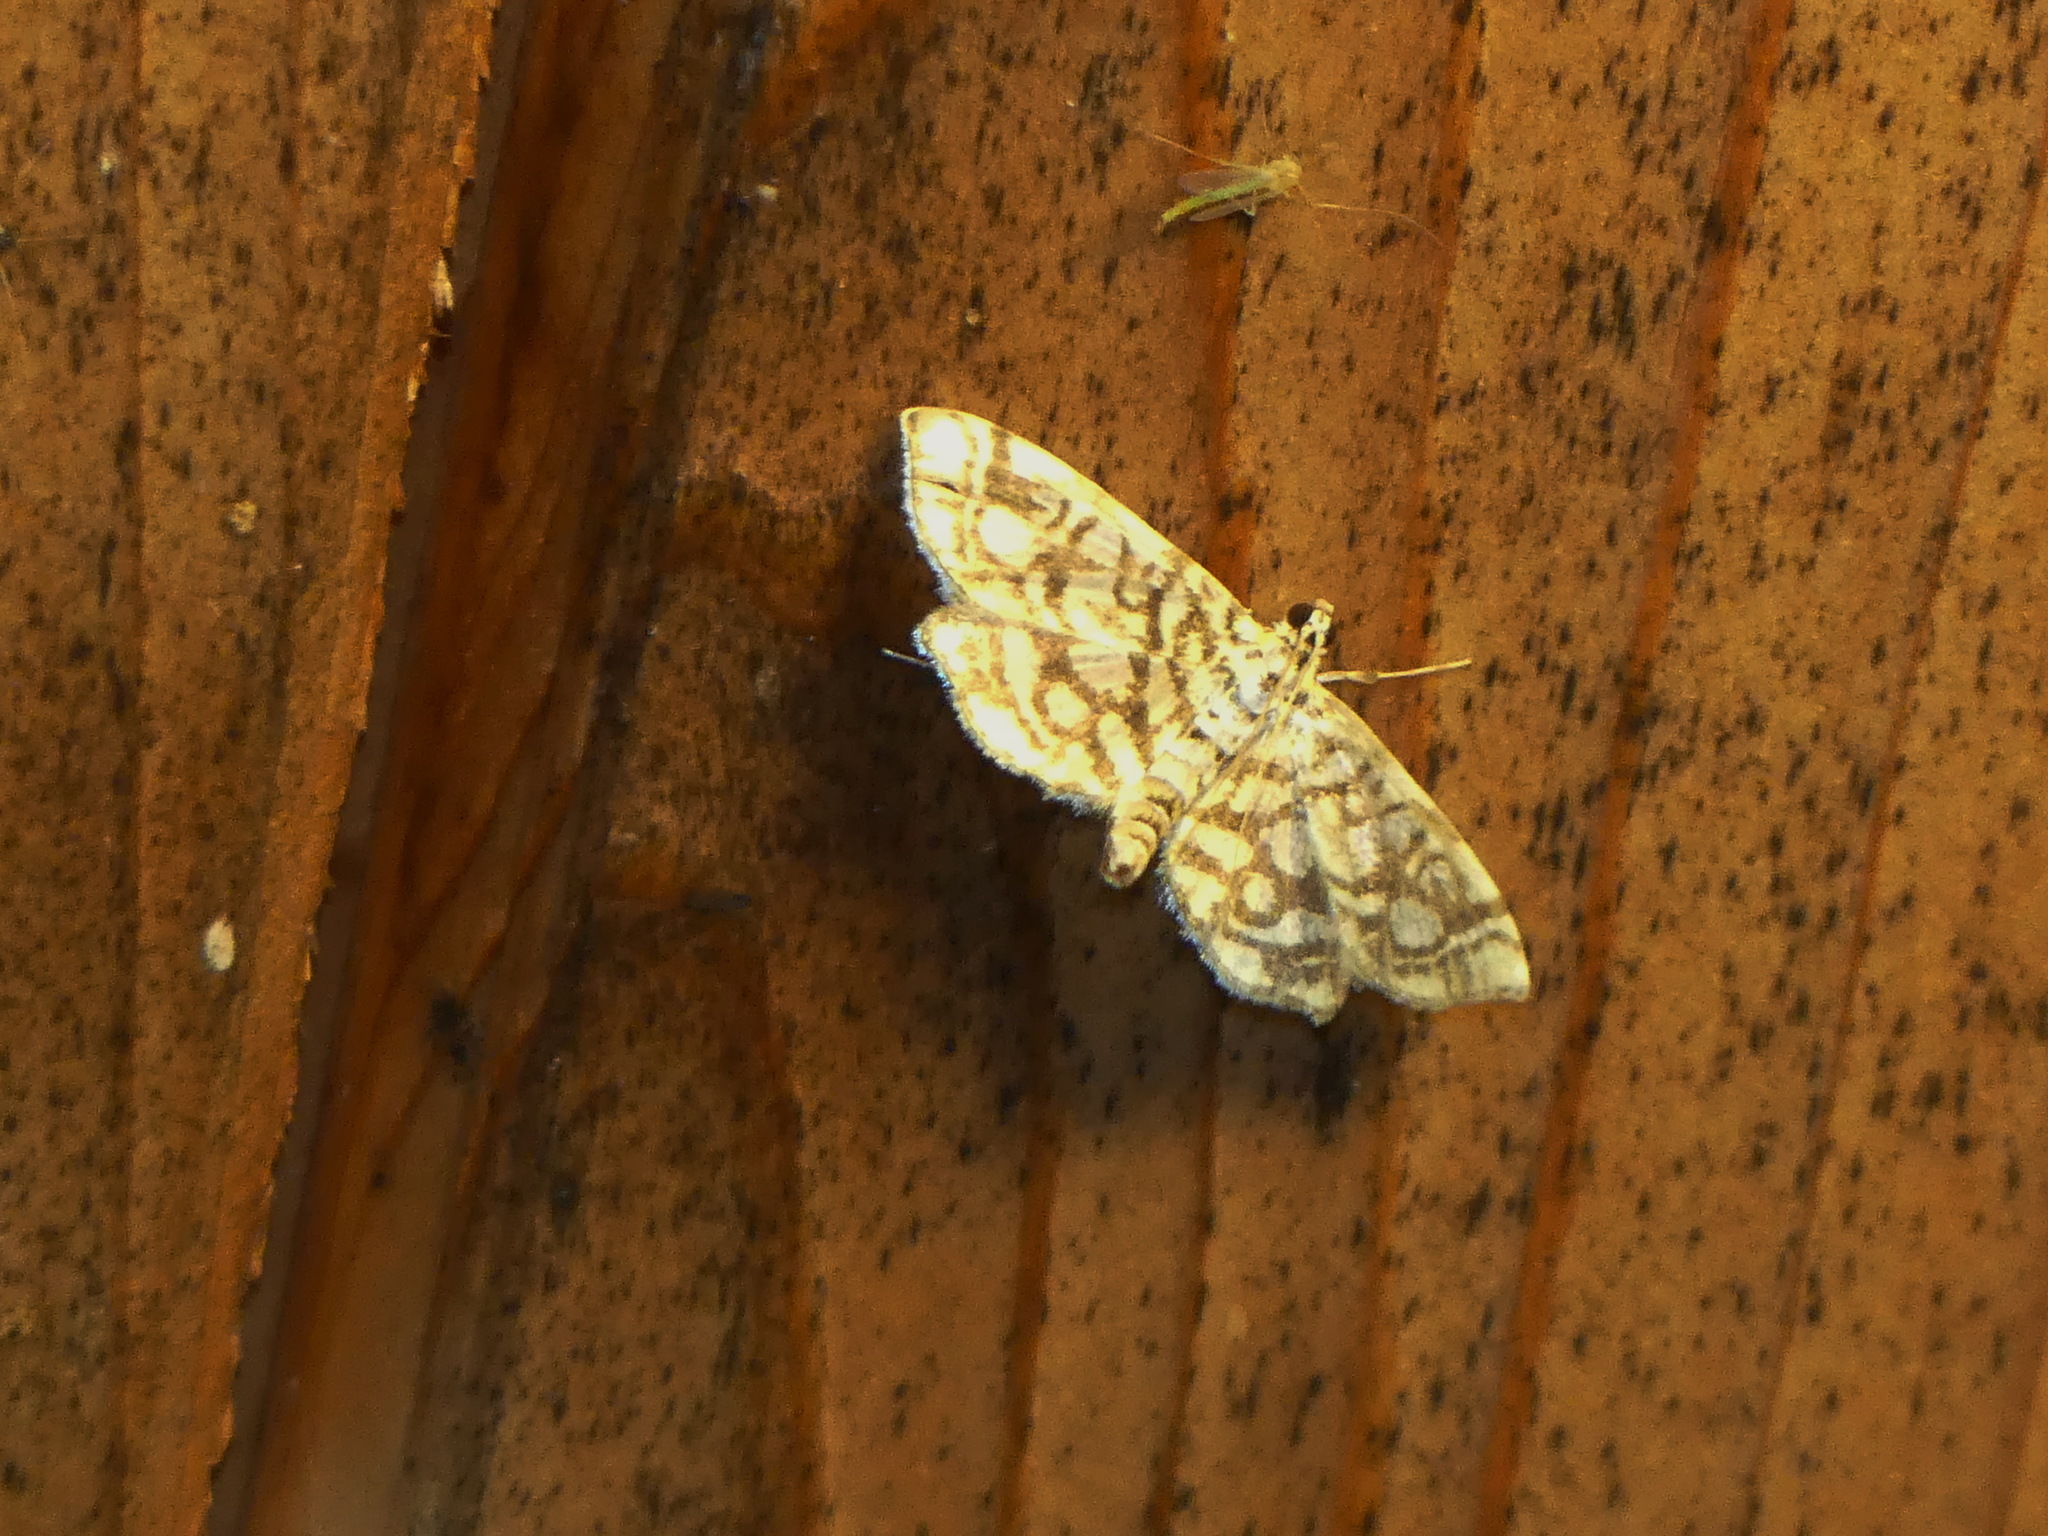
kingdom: Animalia
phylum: Arthropoda
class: Insecta
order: Lepidoptera
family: Crambidae
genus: Lygropia
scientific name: Lygropia rivulalis
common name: Bog lygropia moth
